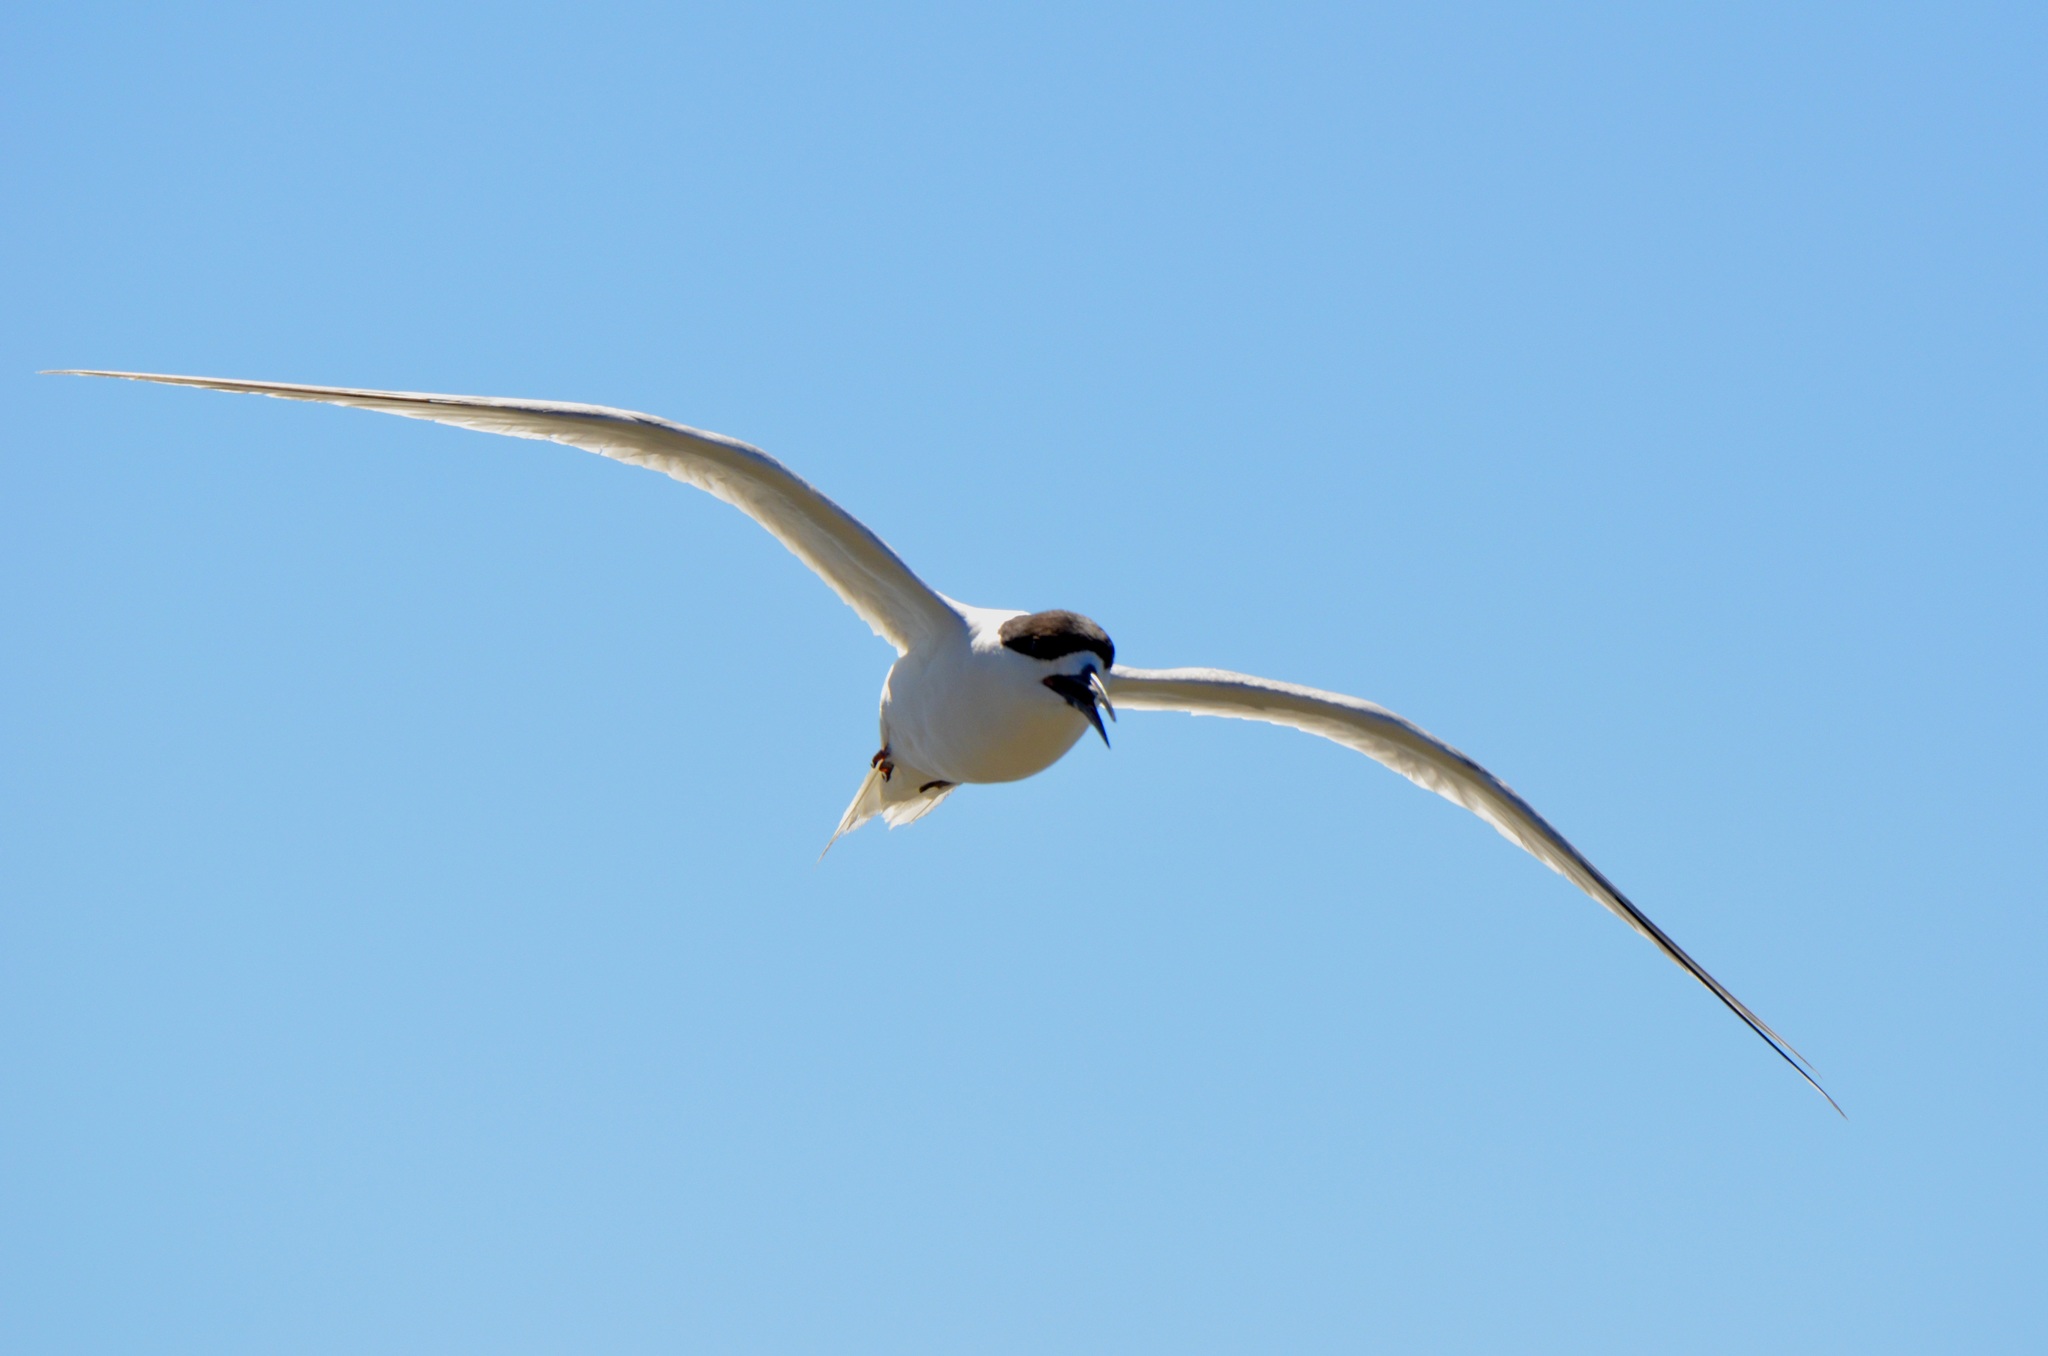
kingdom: Animalia
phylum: Chordata
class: Aves
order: Charadriiformes
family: Laridae
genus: Sterna
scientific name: Sterna striata
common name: White-fronted tern
